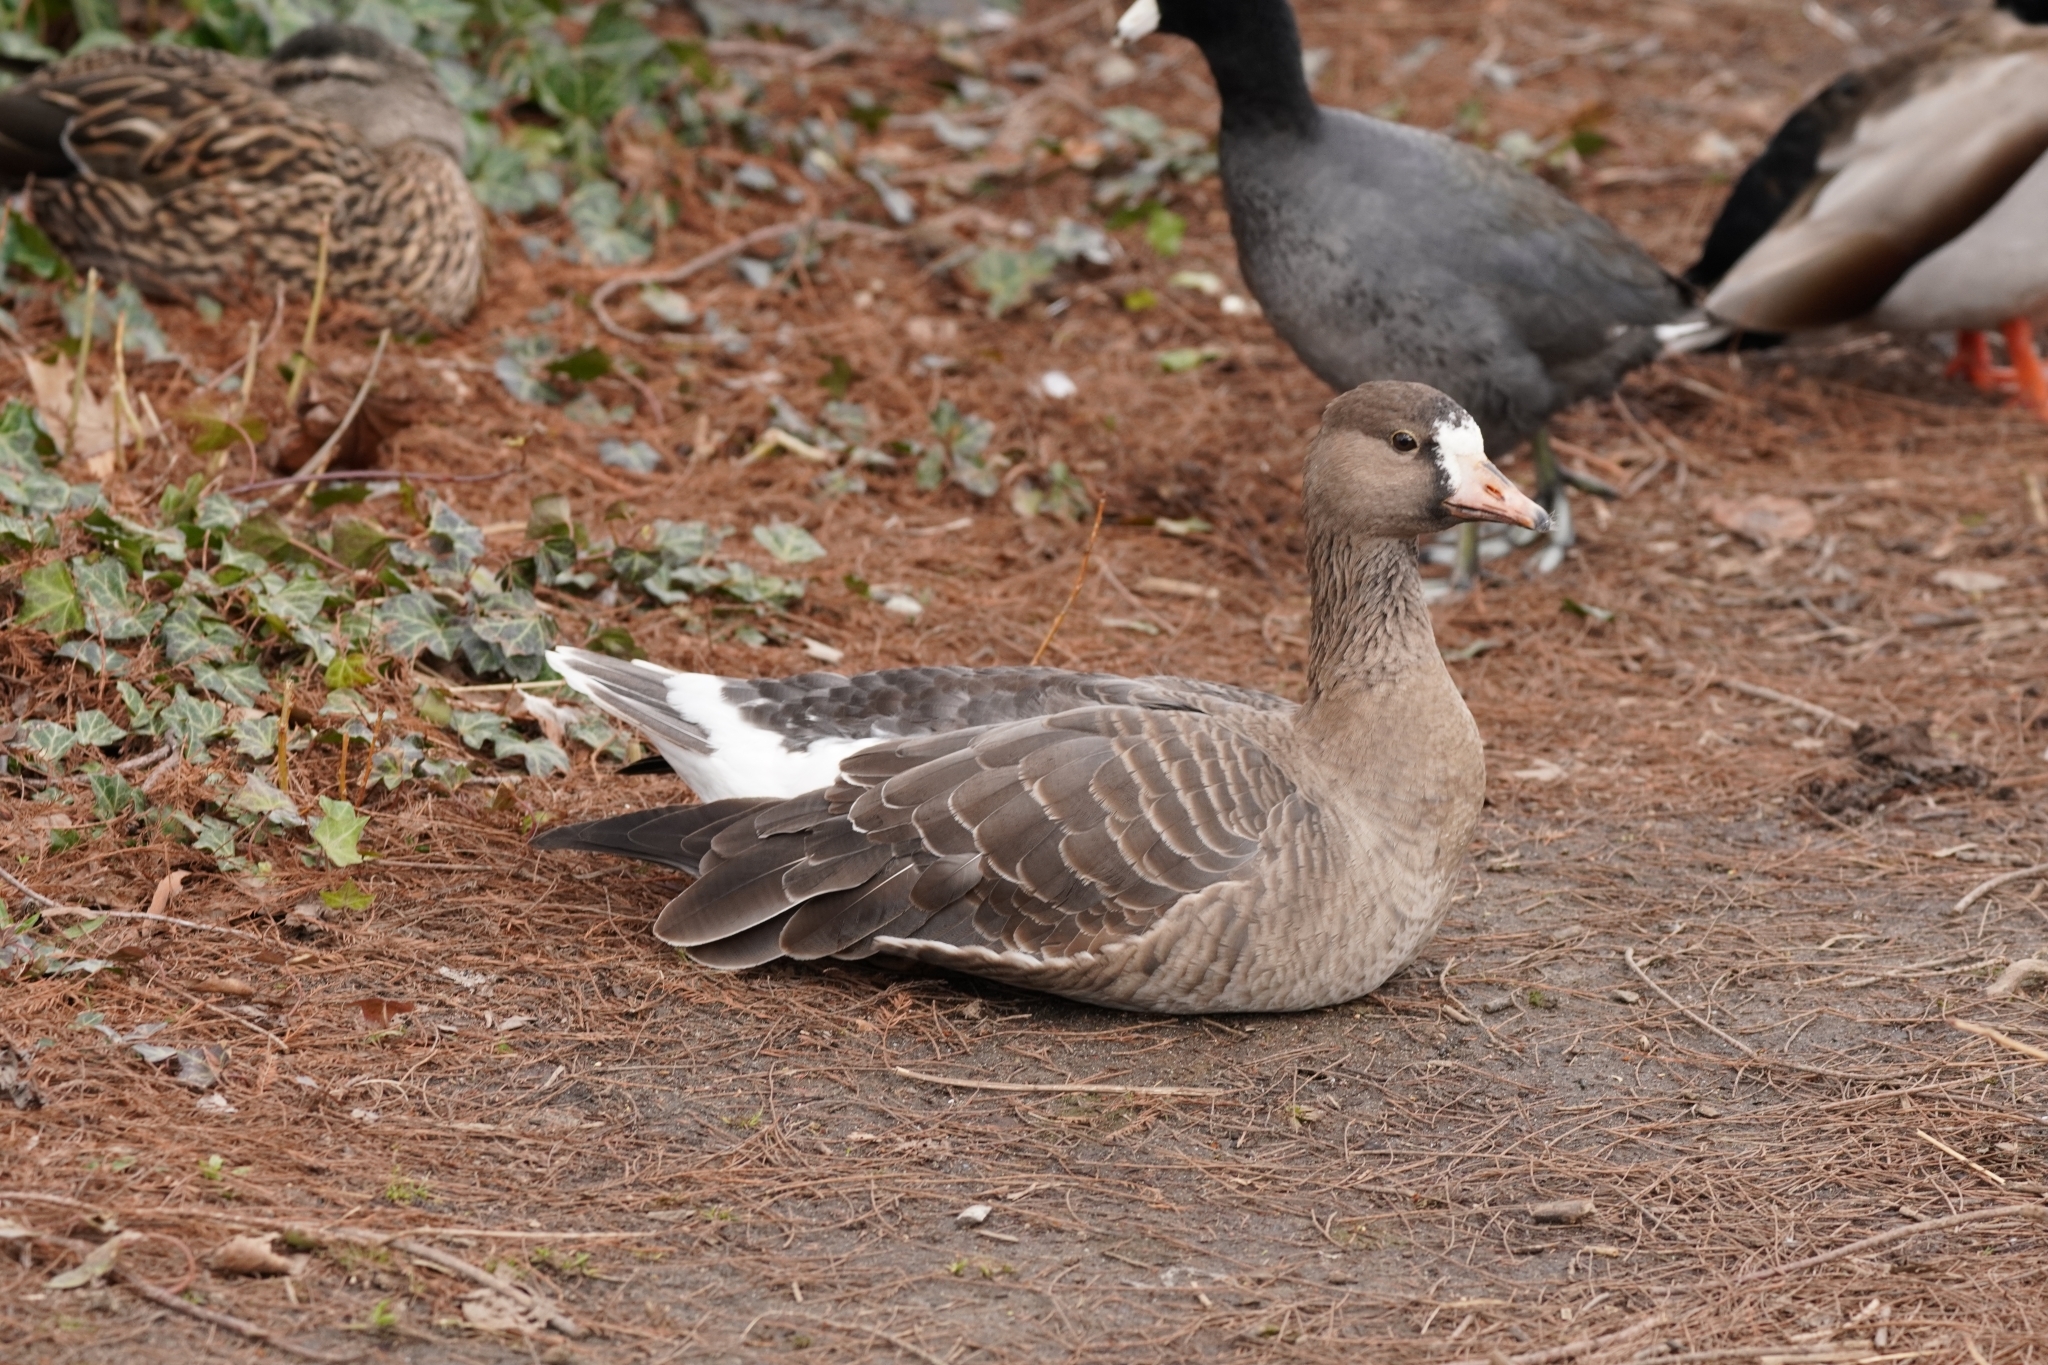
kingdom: Animalia
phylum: Chordata
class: Aves
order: Anseriformes
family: Anatidae
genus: Anser
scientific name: Anser albifrons
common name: Greater white-fronted goose
